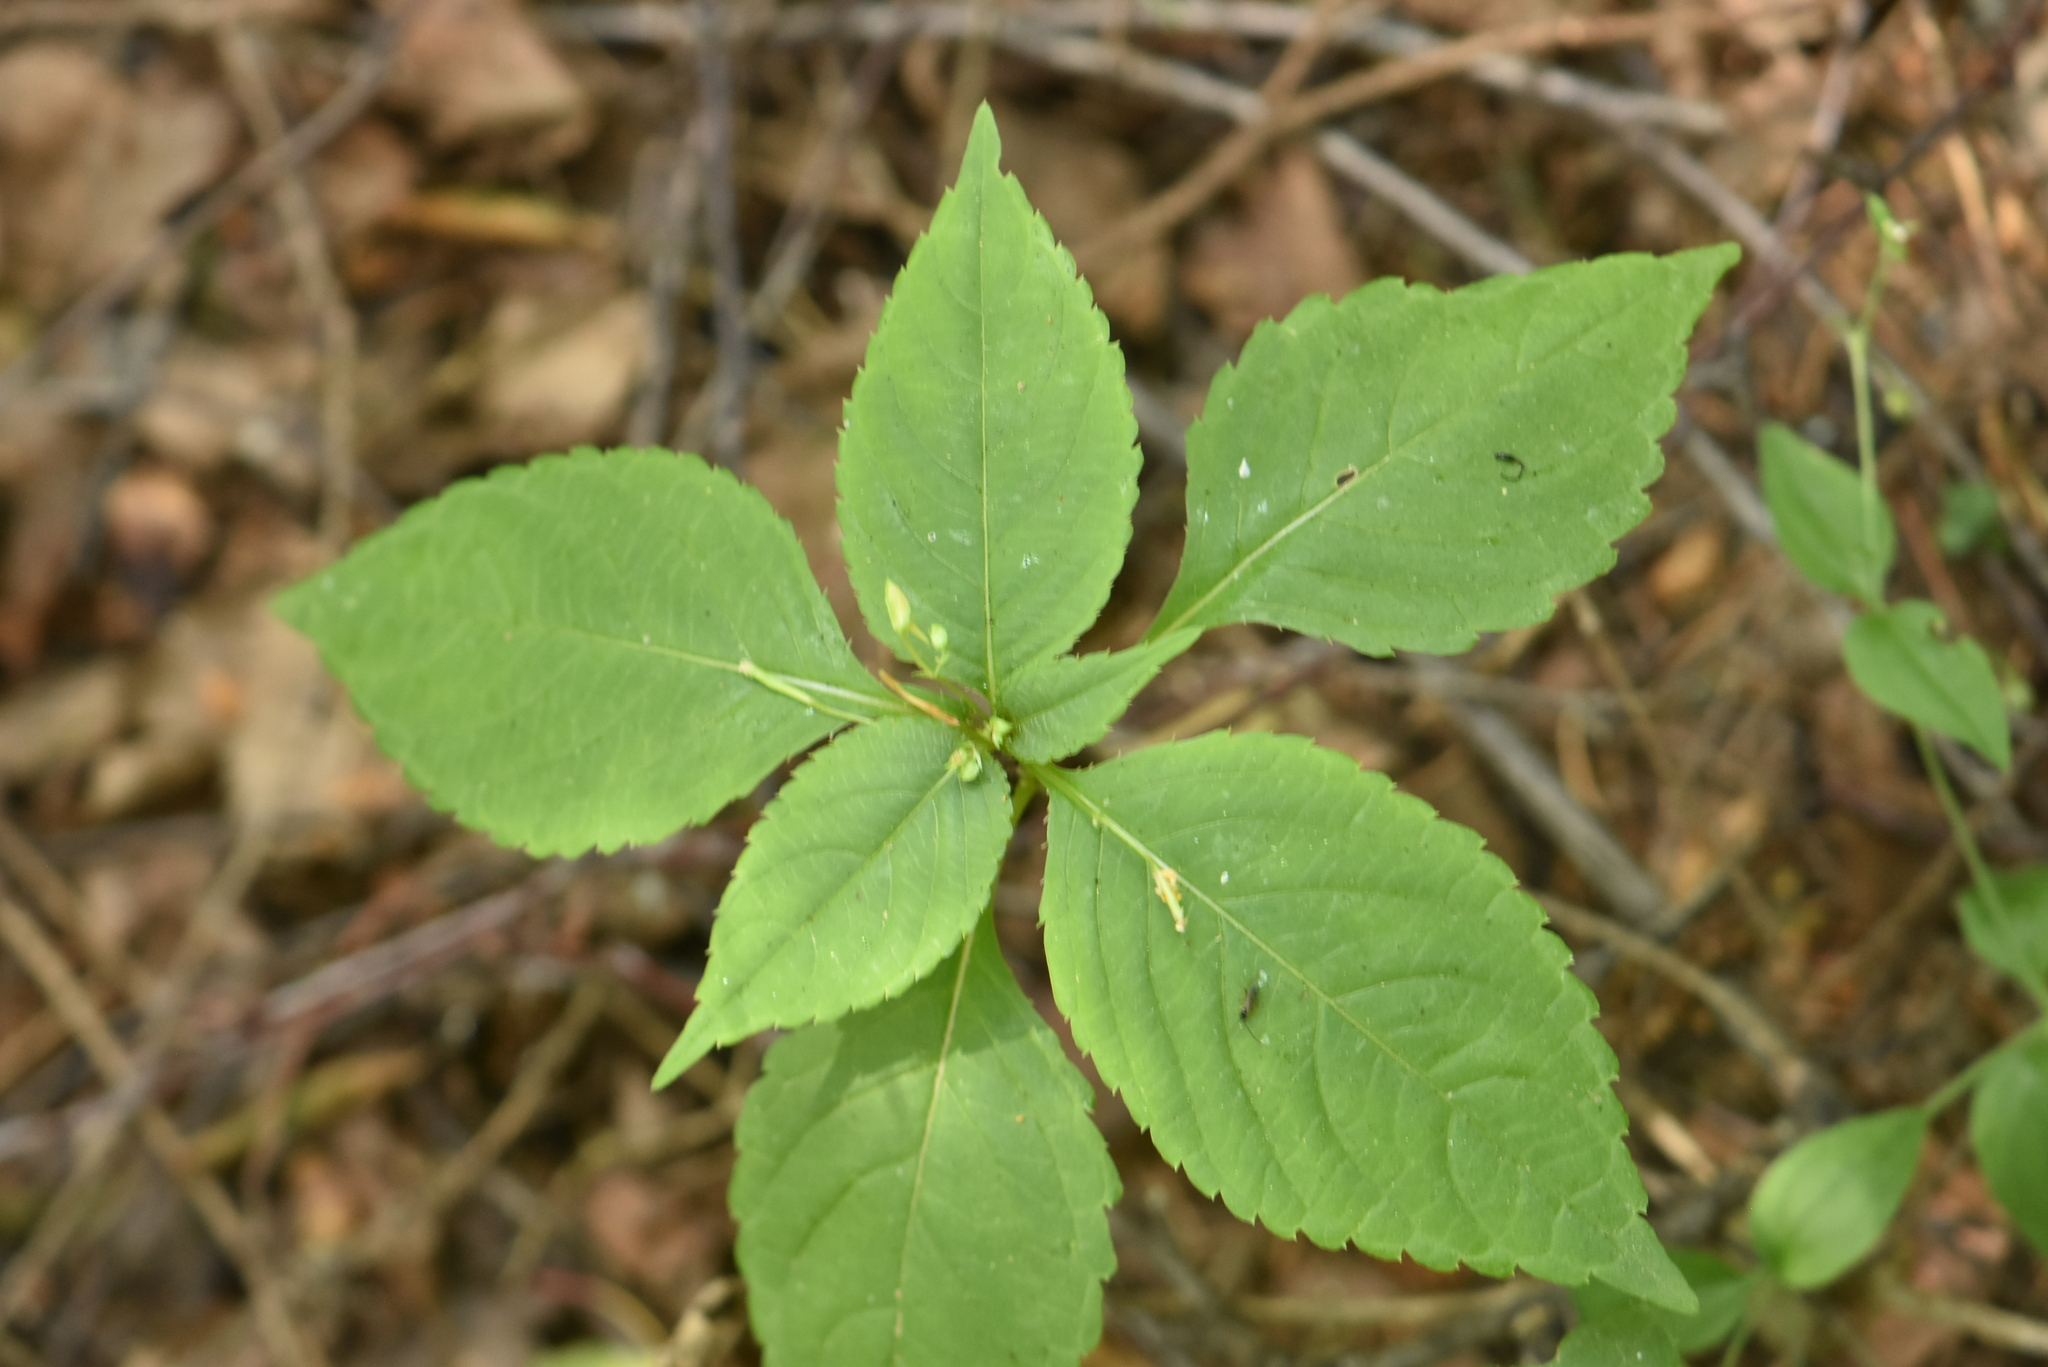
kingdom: Plantae
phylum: Tracheophyta
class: Magnoliopsida
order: Ericales
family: Balsaminaceae
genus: Impatiens
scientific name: Impatiens parviflora
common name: Small balsam
